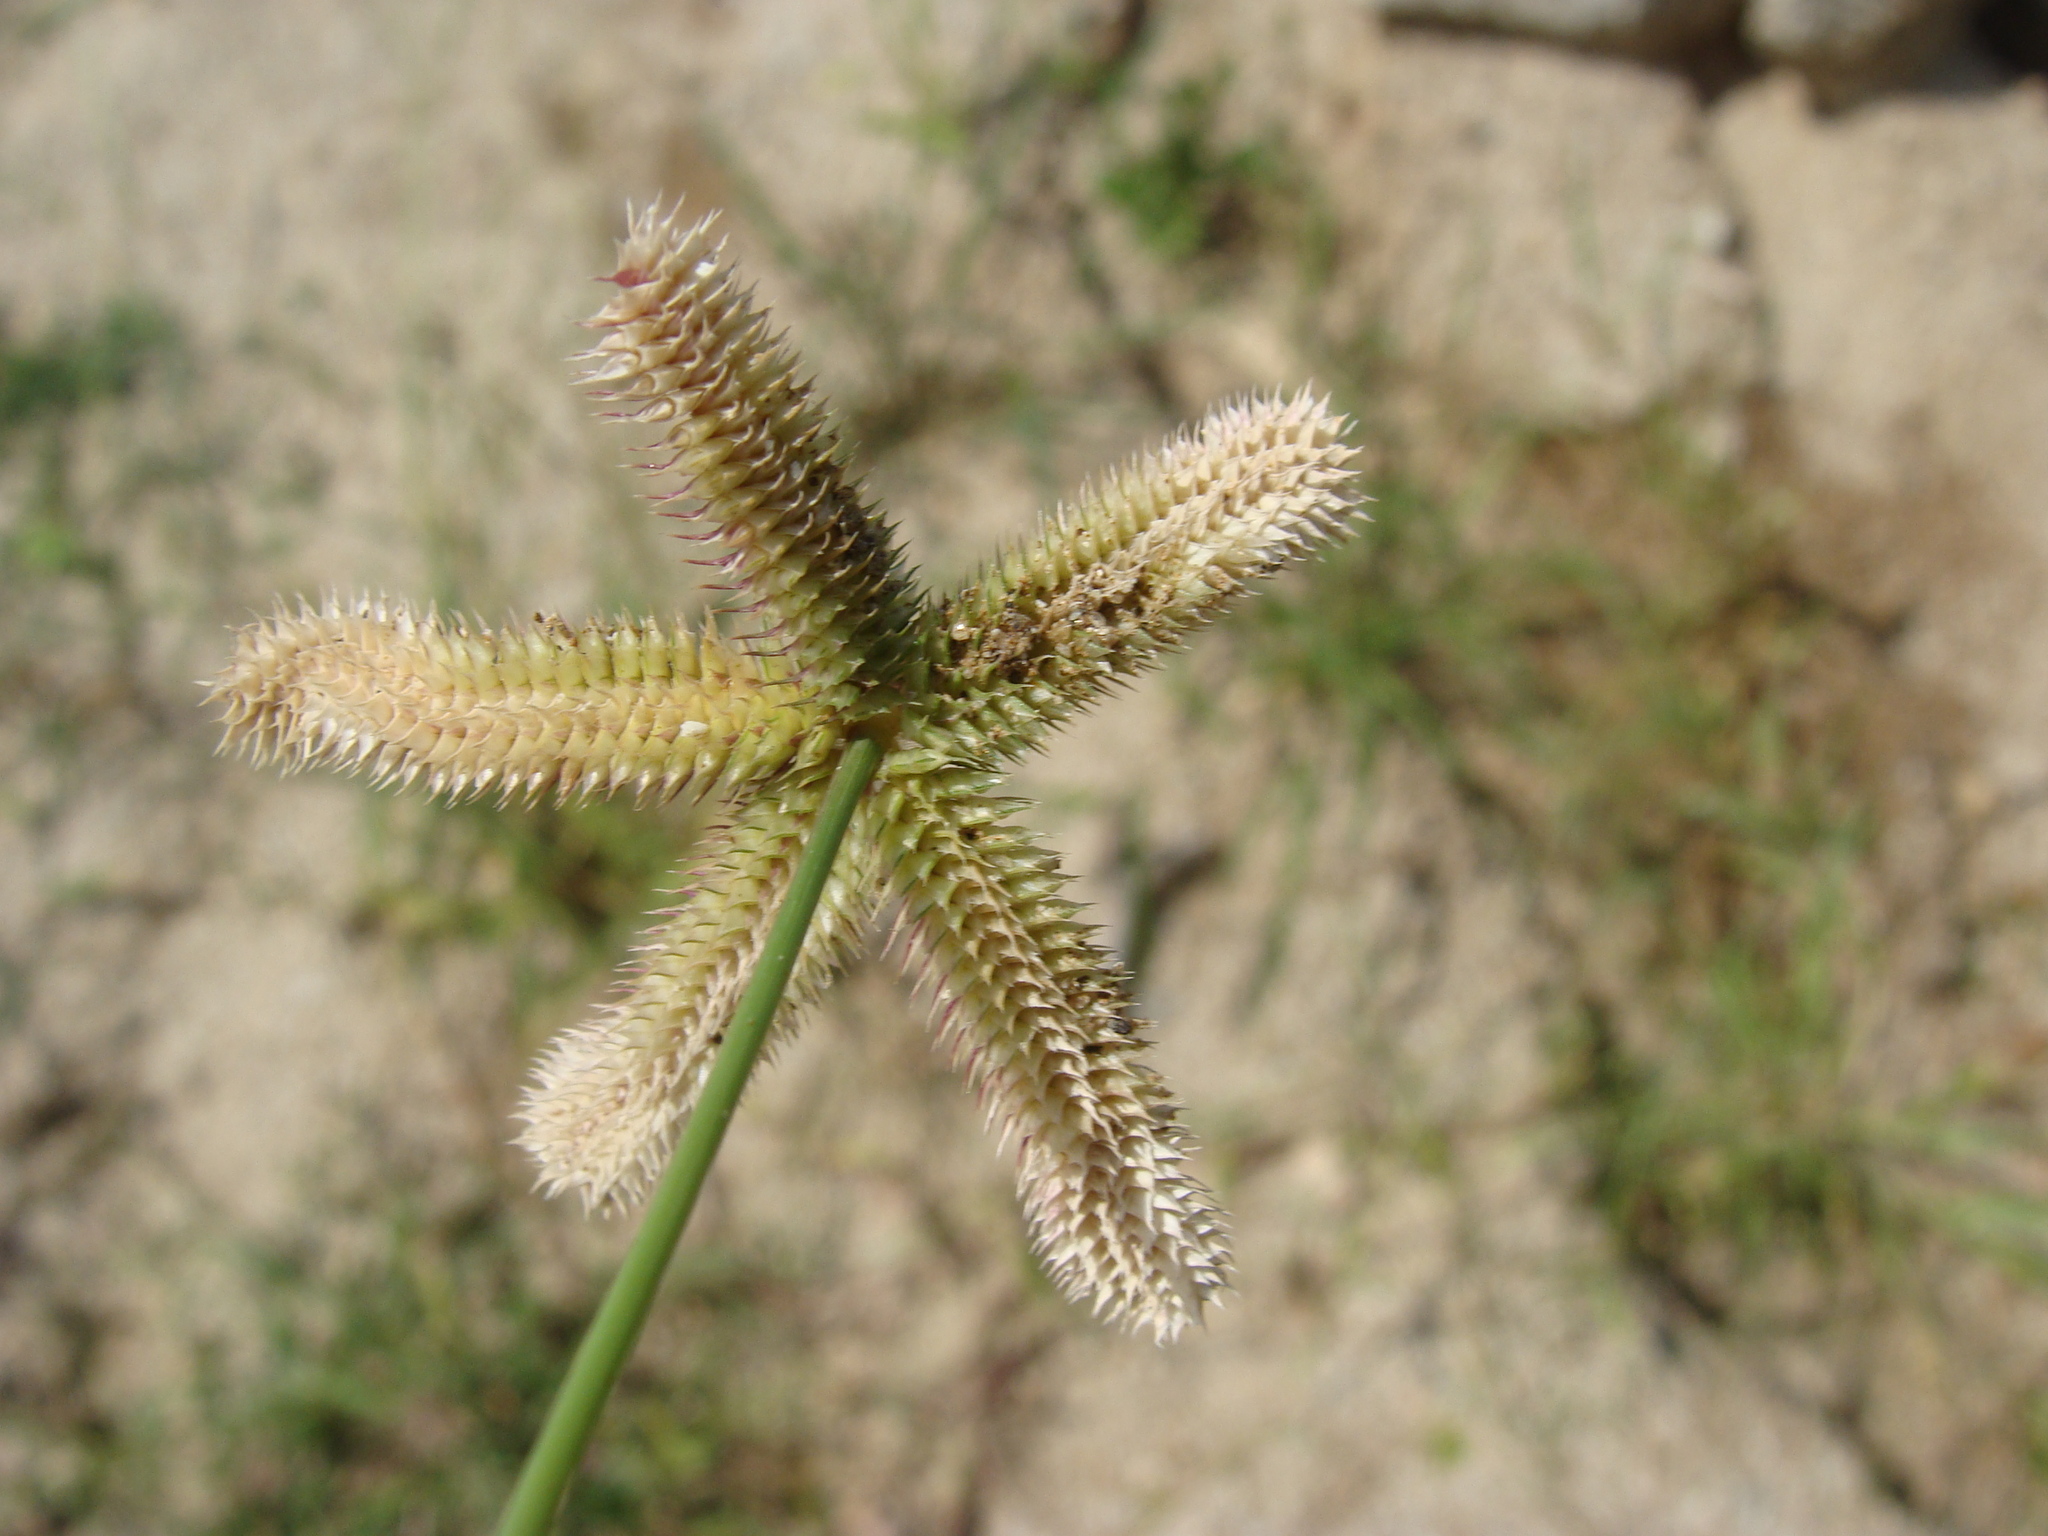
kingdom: Plantae
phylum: Tracheophyta
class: Liliopsida
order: Poales
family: Poaceae
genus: Dactyloctenium
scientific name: Dactyloctenium aegyptium
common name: Egyptian grass
